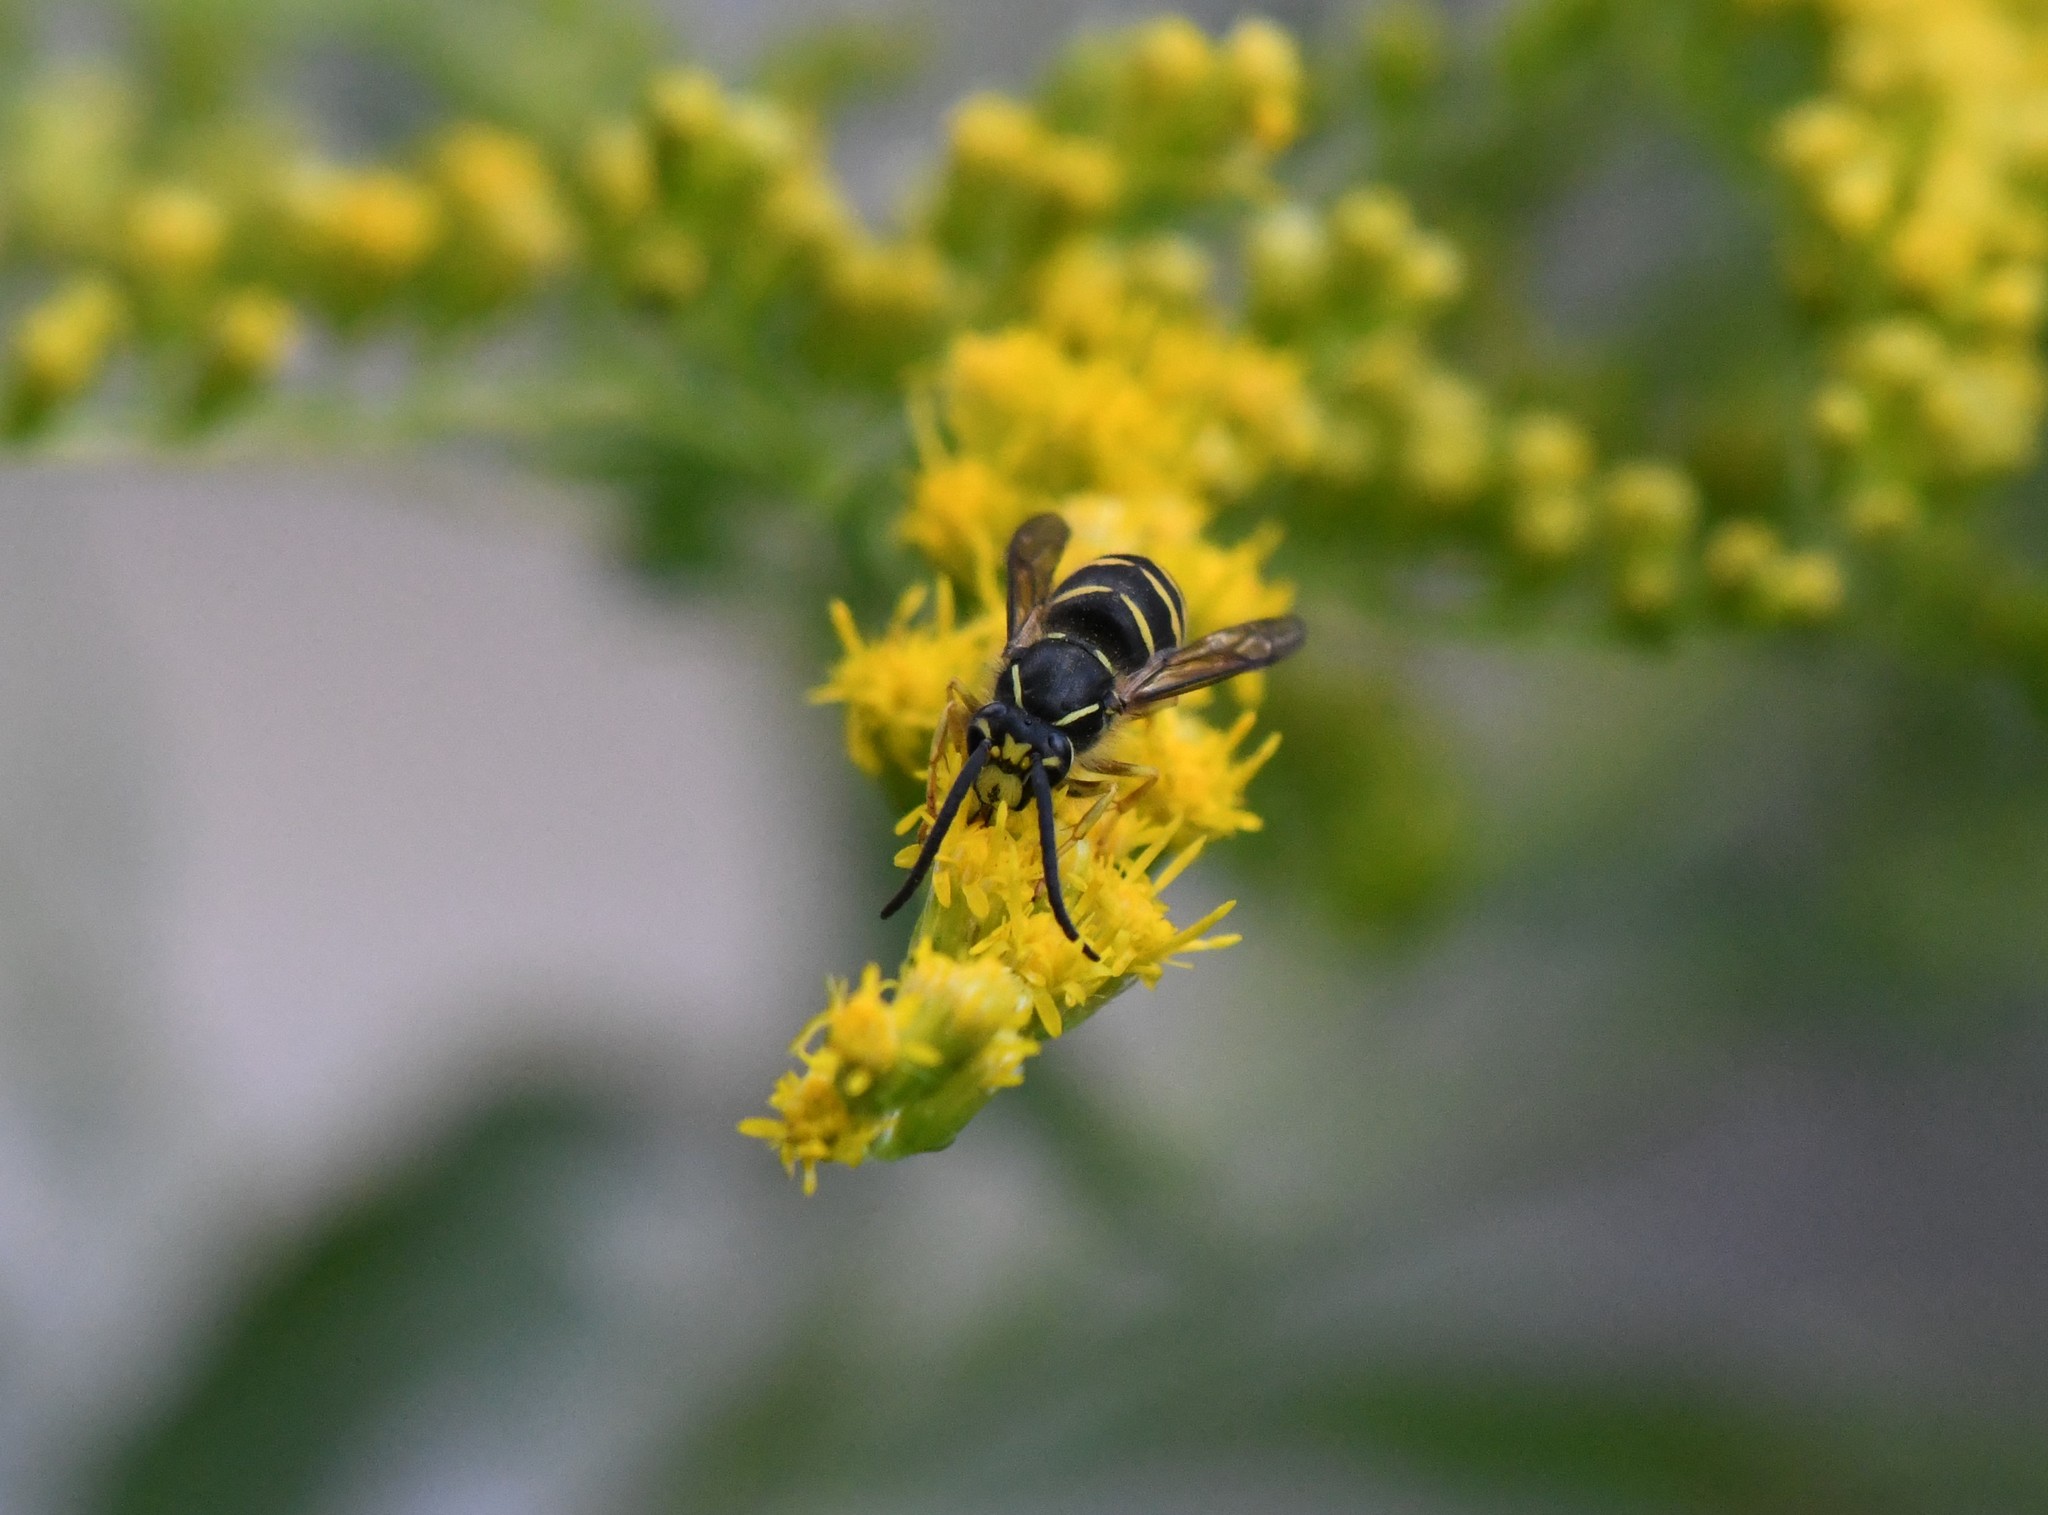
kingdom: Animalia
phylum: Arthropoda
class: Insecta
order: Hymenoptera
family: Vespidae
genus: Dolichovespula
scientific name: Dolichovespula arenaria
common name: Aerial yellowjacket
